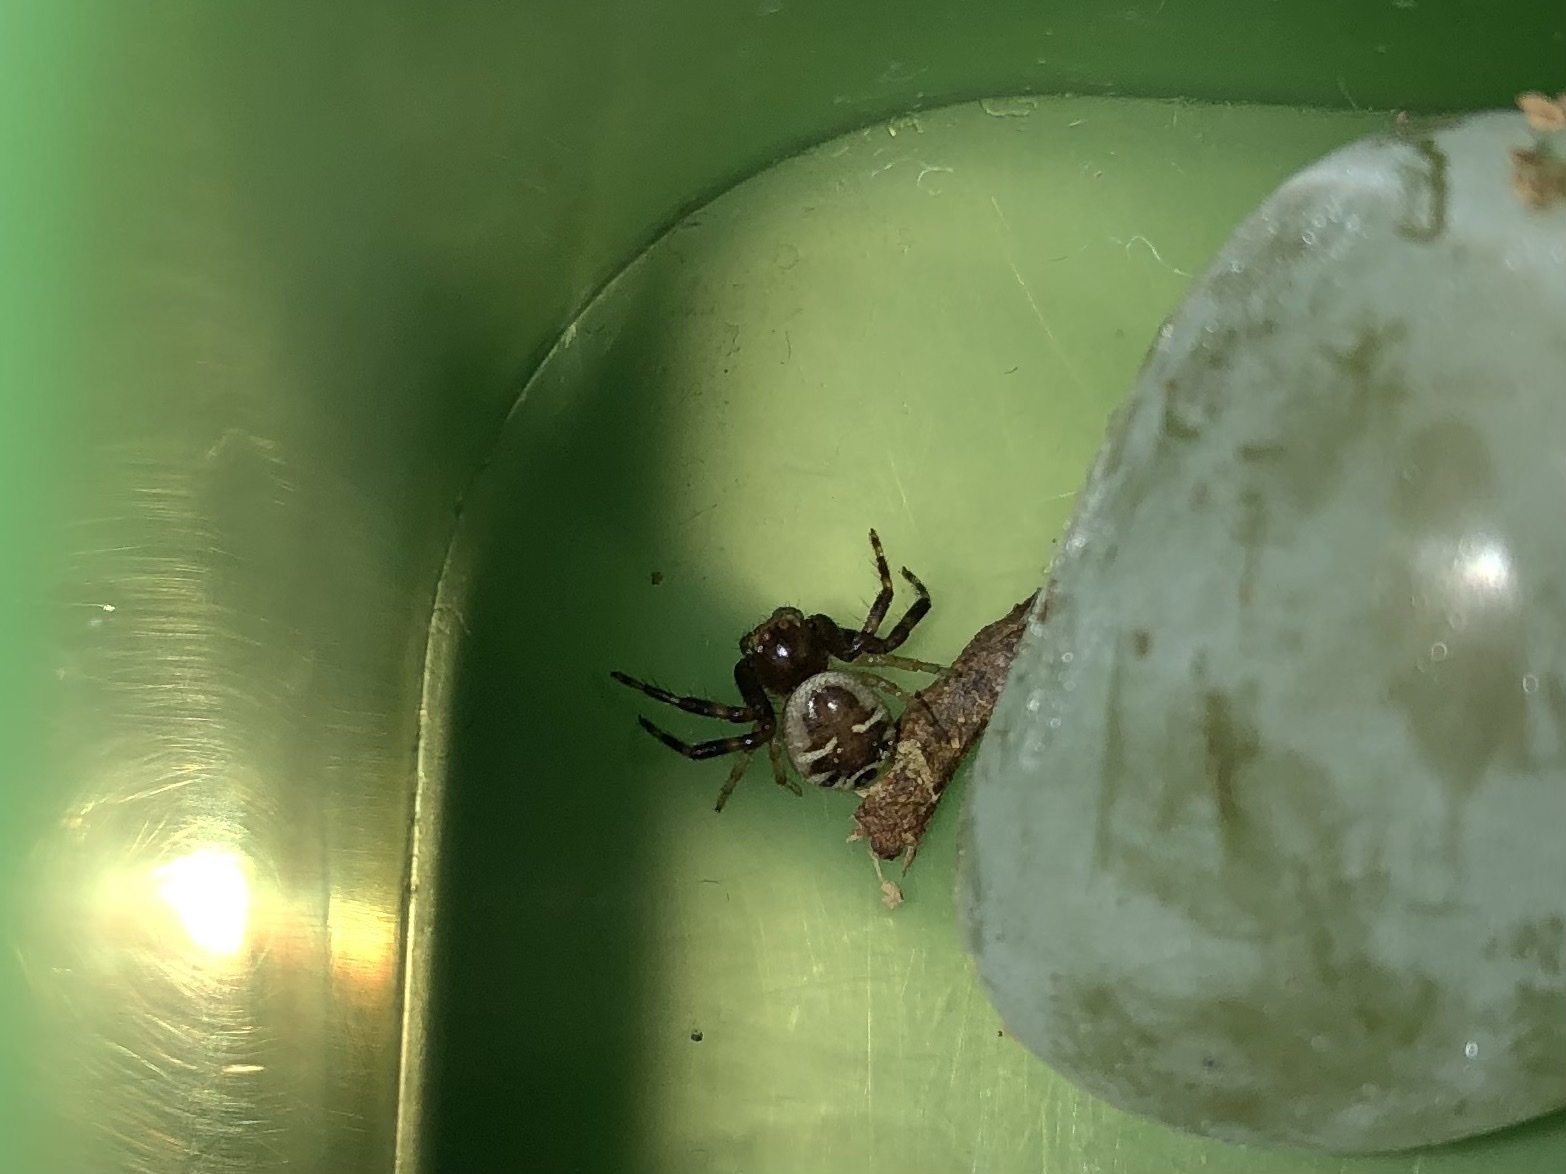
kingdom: Animalia
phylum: Arthropoda
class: Arachnida
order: Araneae
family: Thomisidae
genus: Synema
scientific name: Synema globosum
